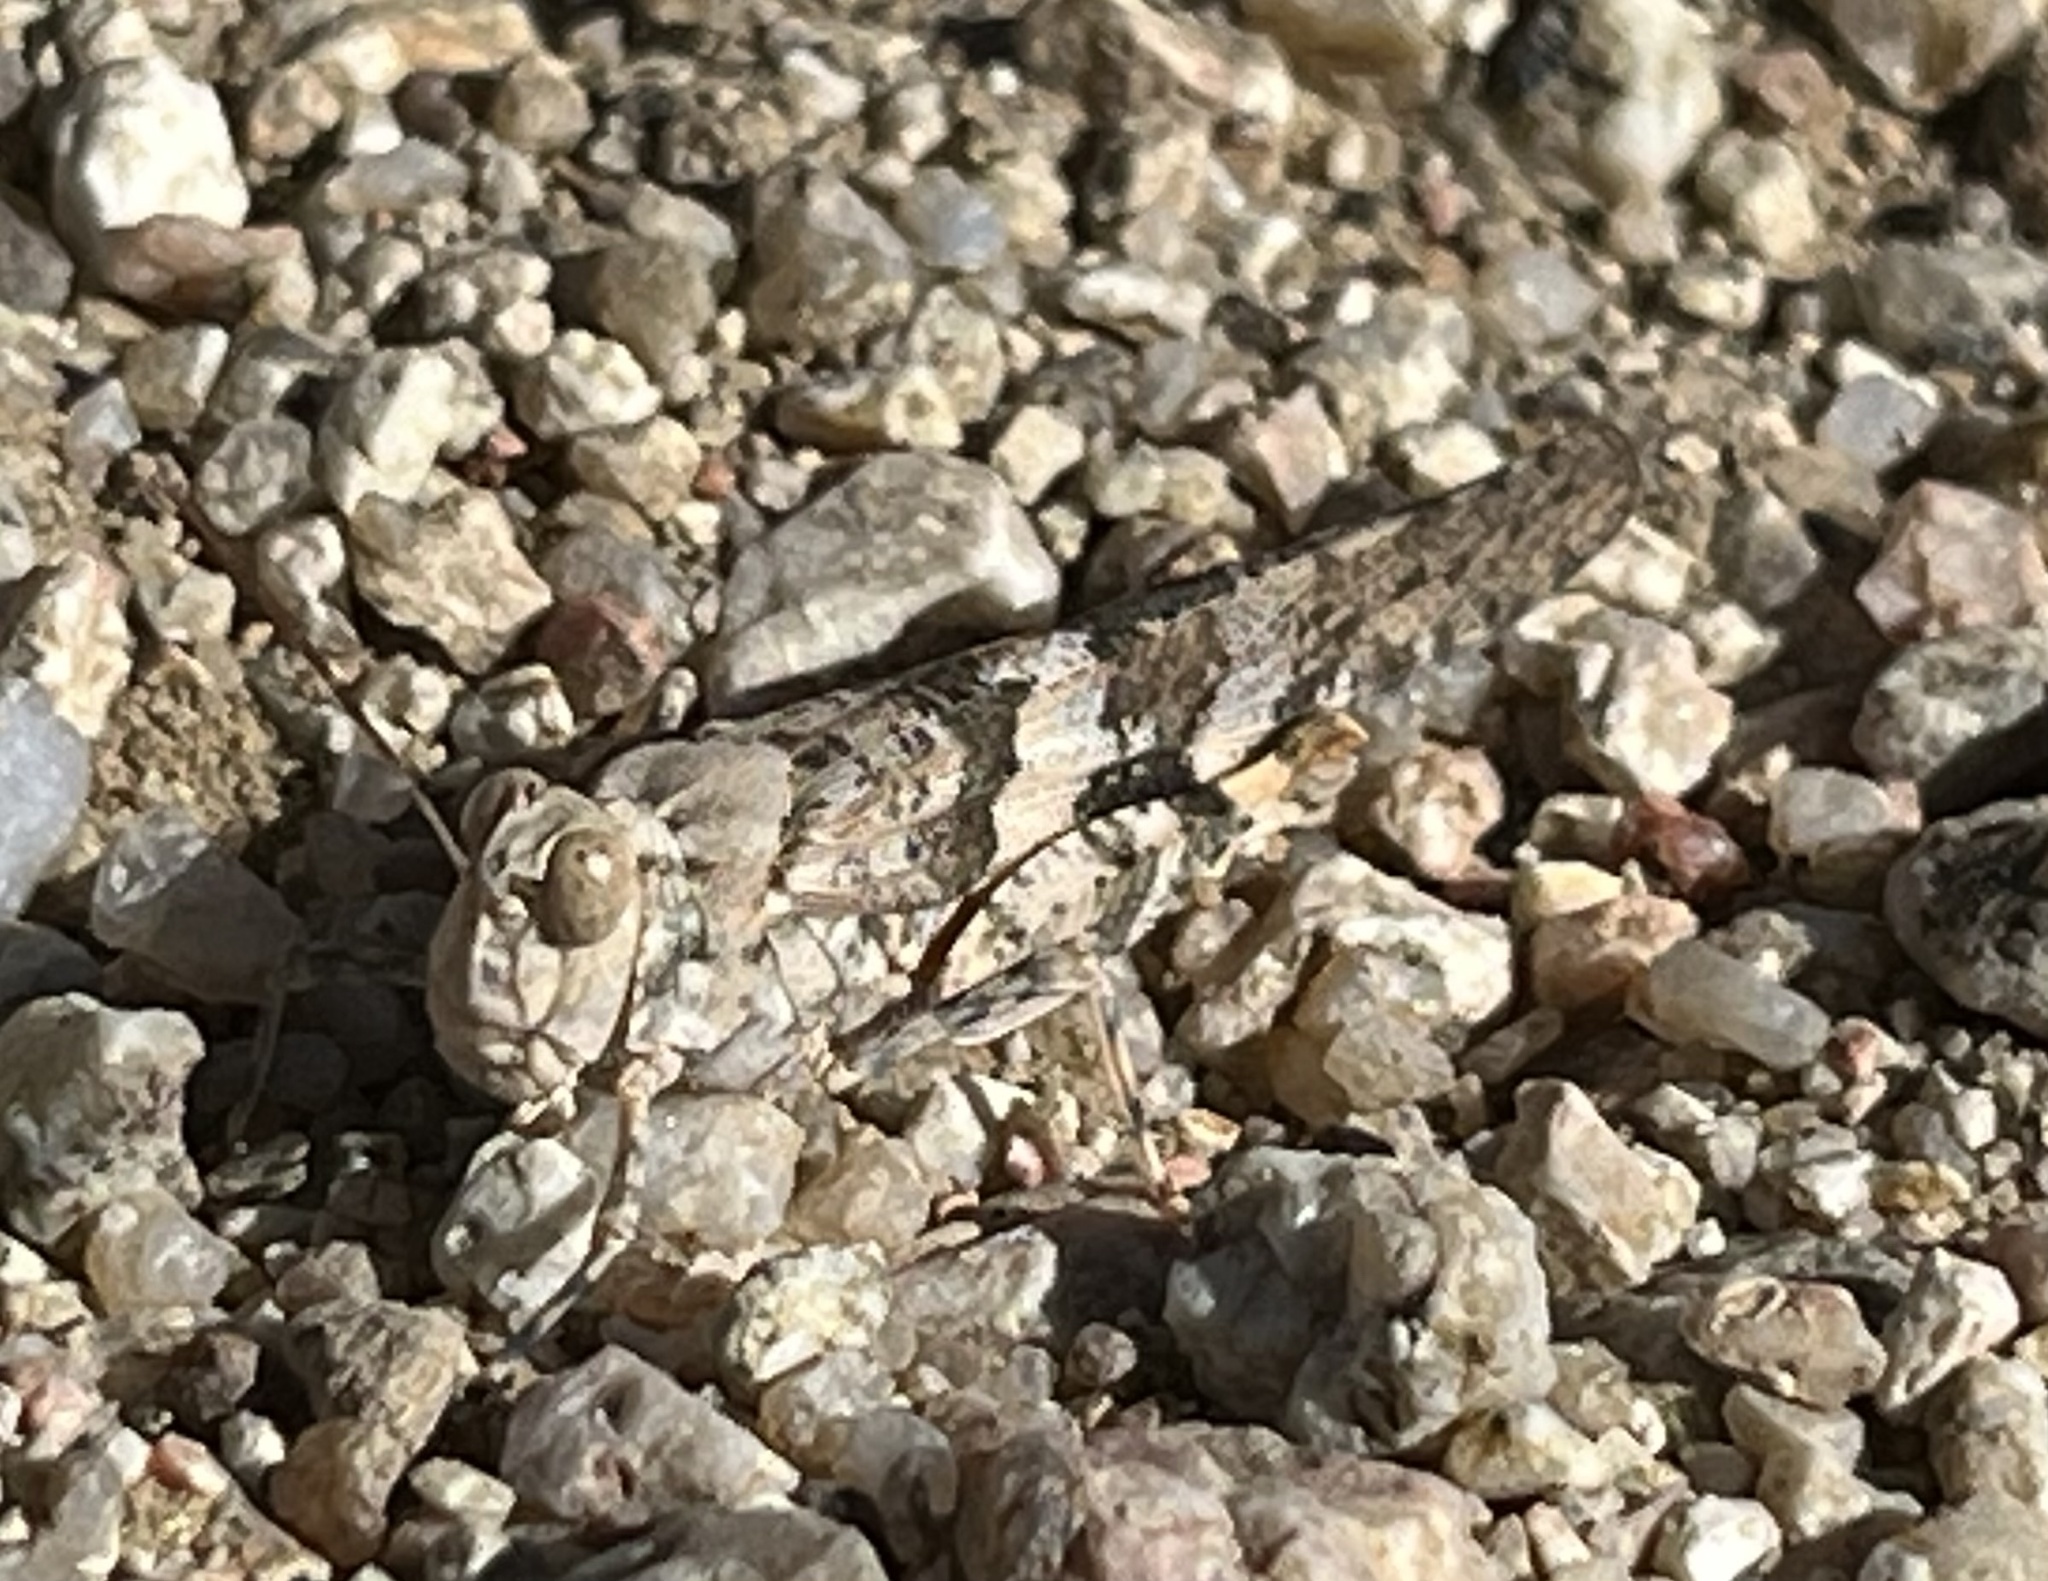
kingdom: Animalia
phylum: Arthropoda
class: Insecta
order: Orthoptera
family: Acrididae
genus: Trimerotropis
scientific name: Trimerotropis pallidipennis
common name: Pallid-winged grasshopper
